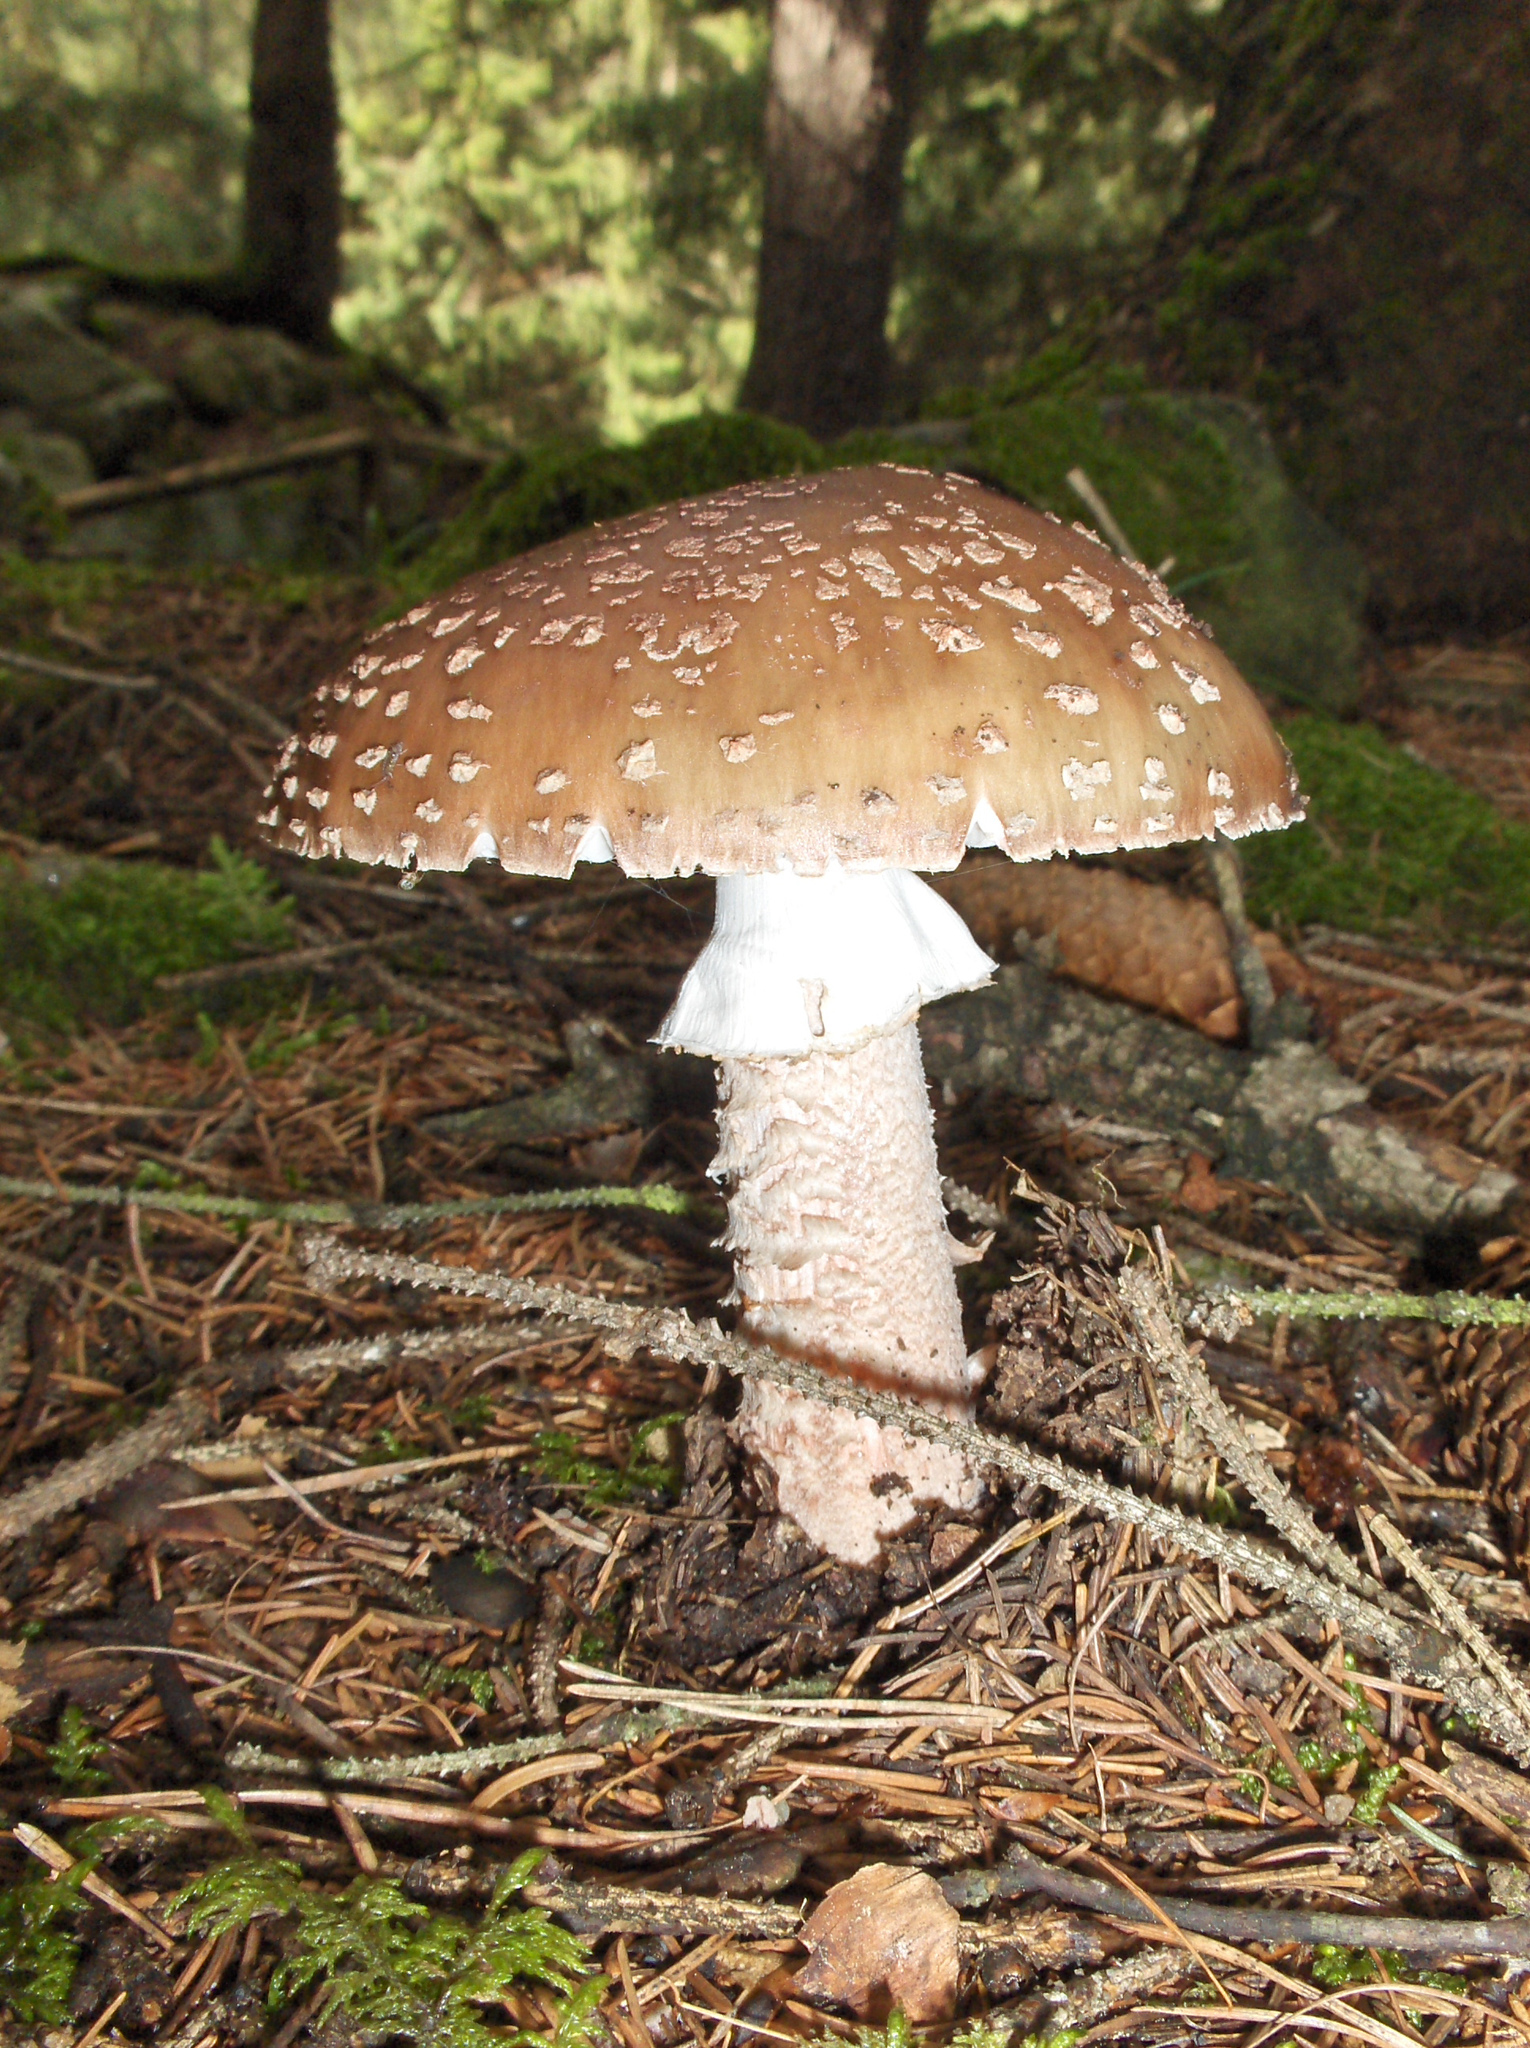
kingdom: Fungi
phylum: Basidiomycota
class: Agaricomycetes
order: Agaricales
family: Amanitaceae
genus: Amanita
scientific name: Amanita rubescens
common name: Blusher
